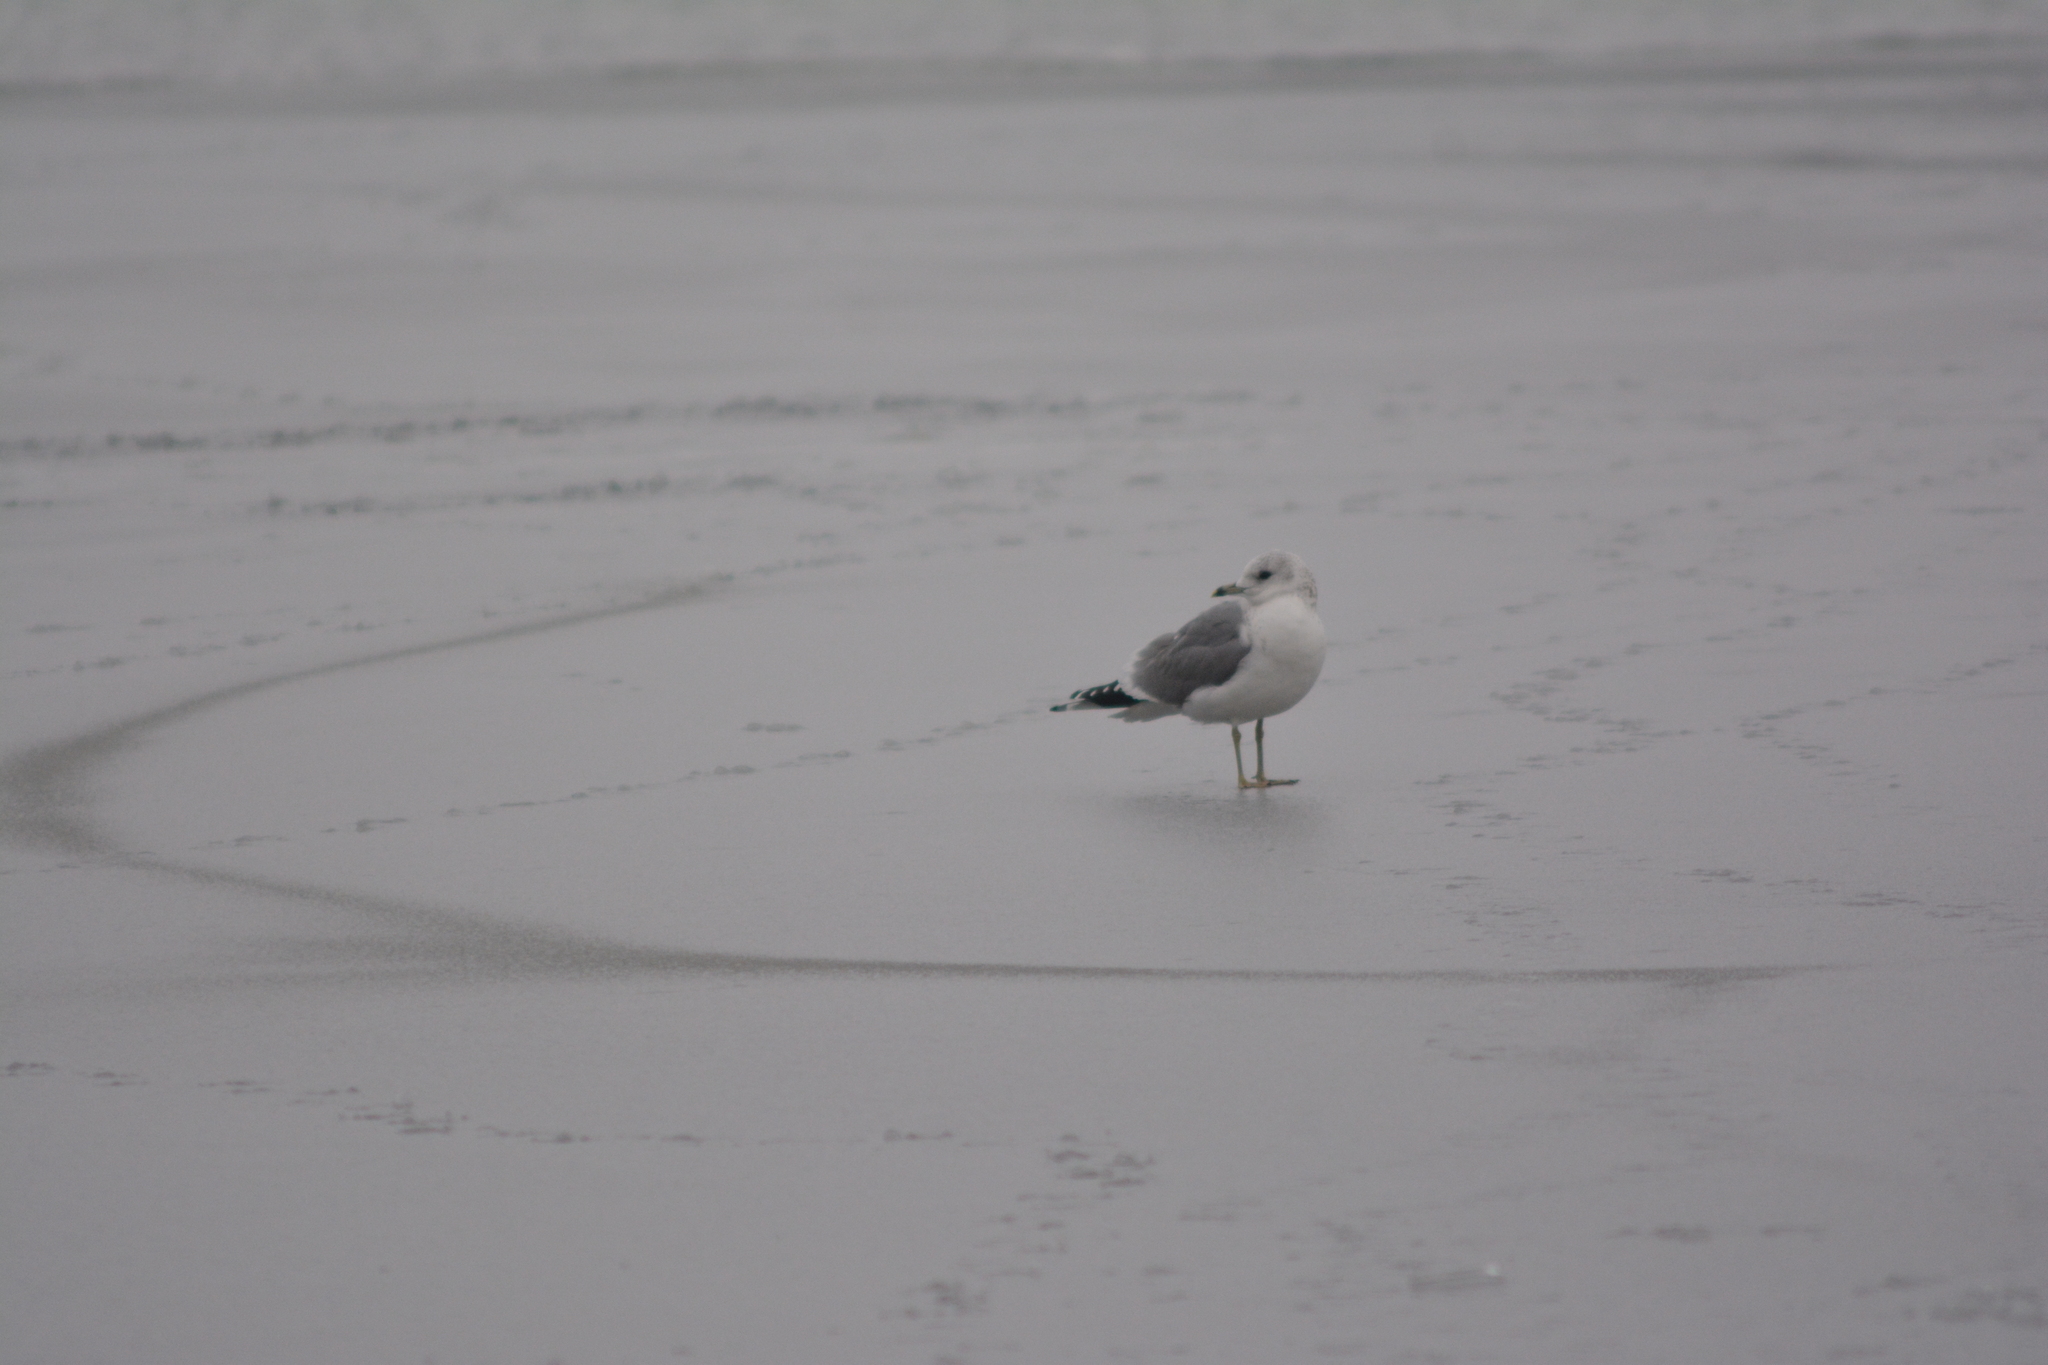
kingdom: Animalia
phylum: Chordata
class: Aves
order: Charadriiformes
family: Laridae
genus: Larus
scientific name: Larus canus
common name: Mew gull
